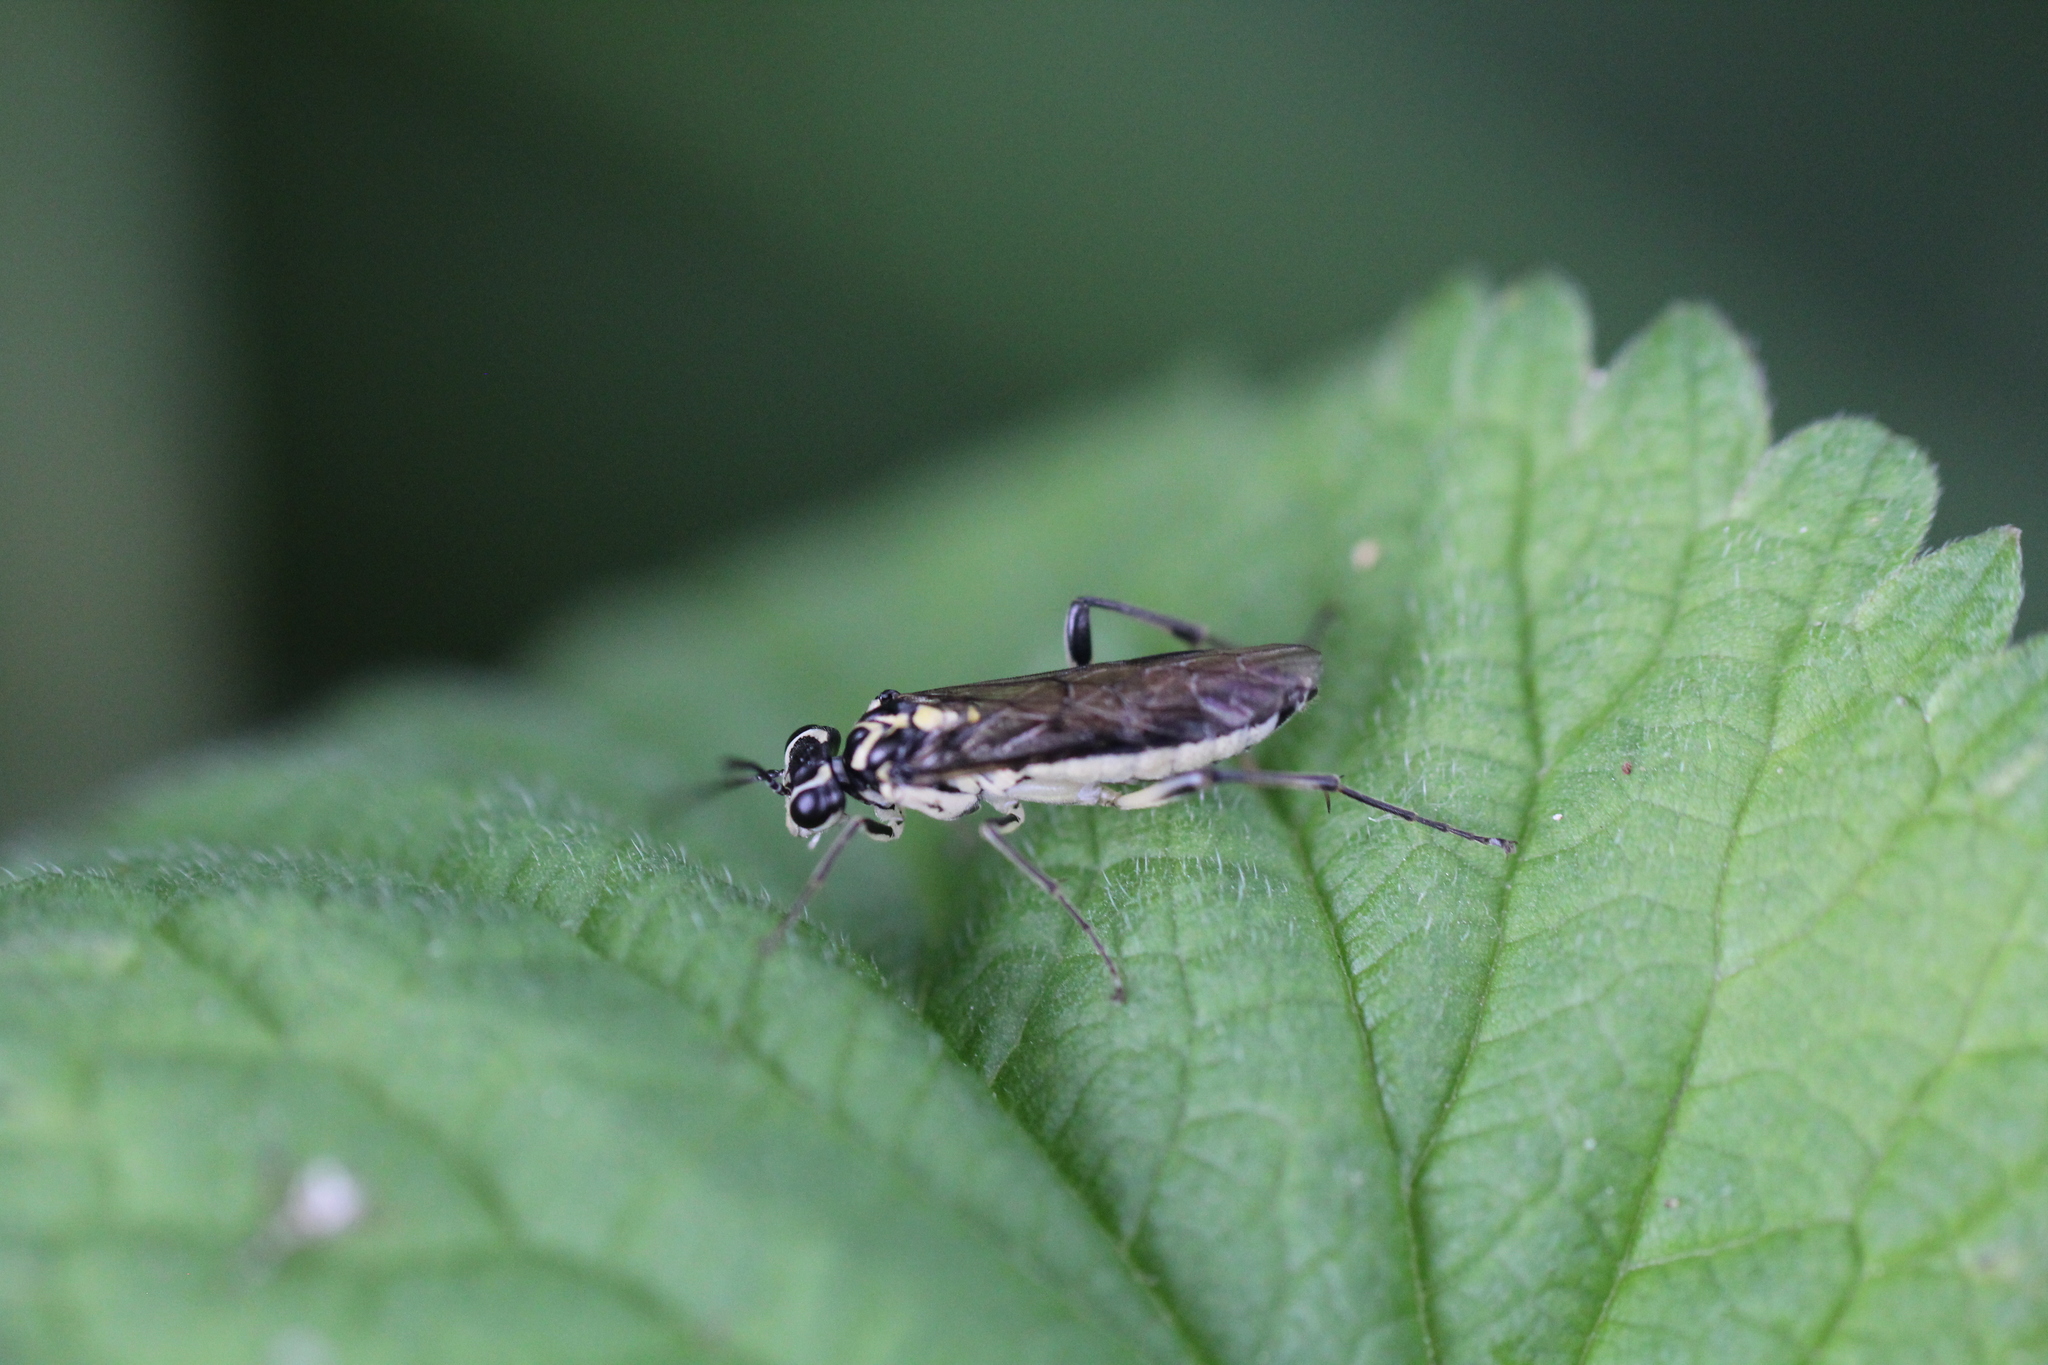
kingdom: Animalia
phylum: Arthropoda
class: Insecta
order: Hymenoptera
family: Tenthredinidae
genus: Pachyprotasis
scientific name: Pachyprotasis rapae
